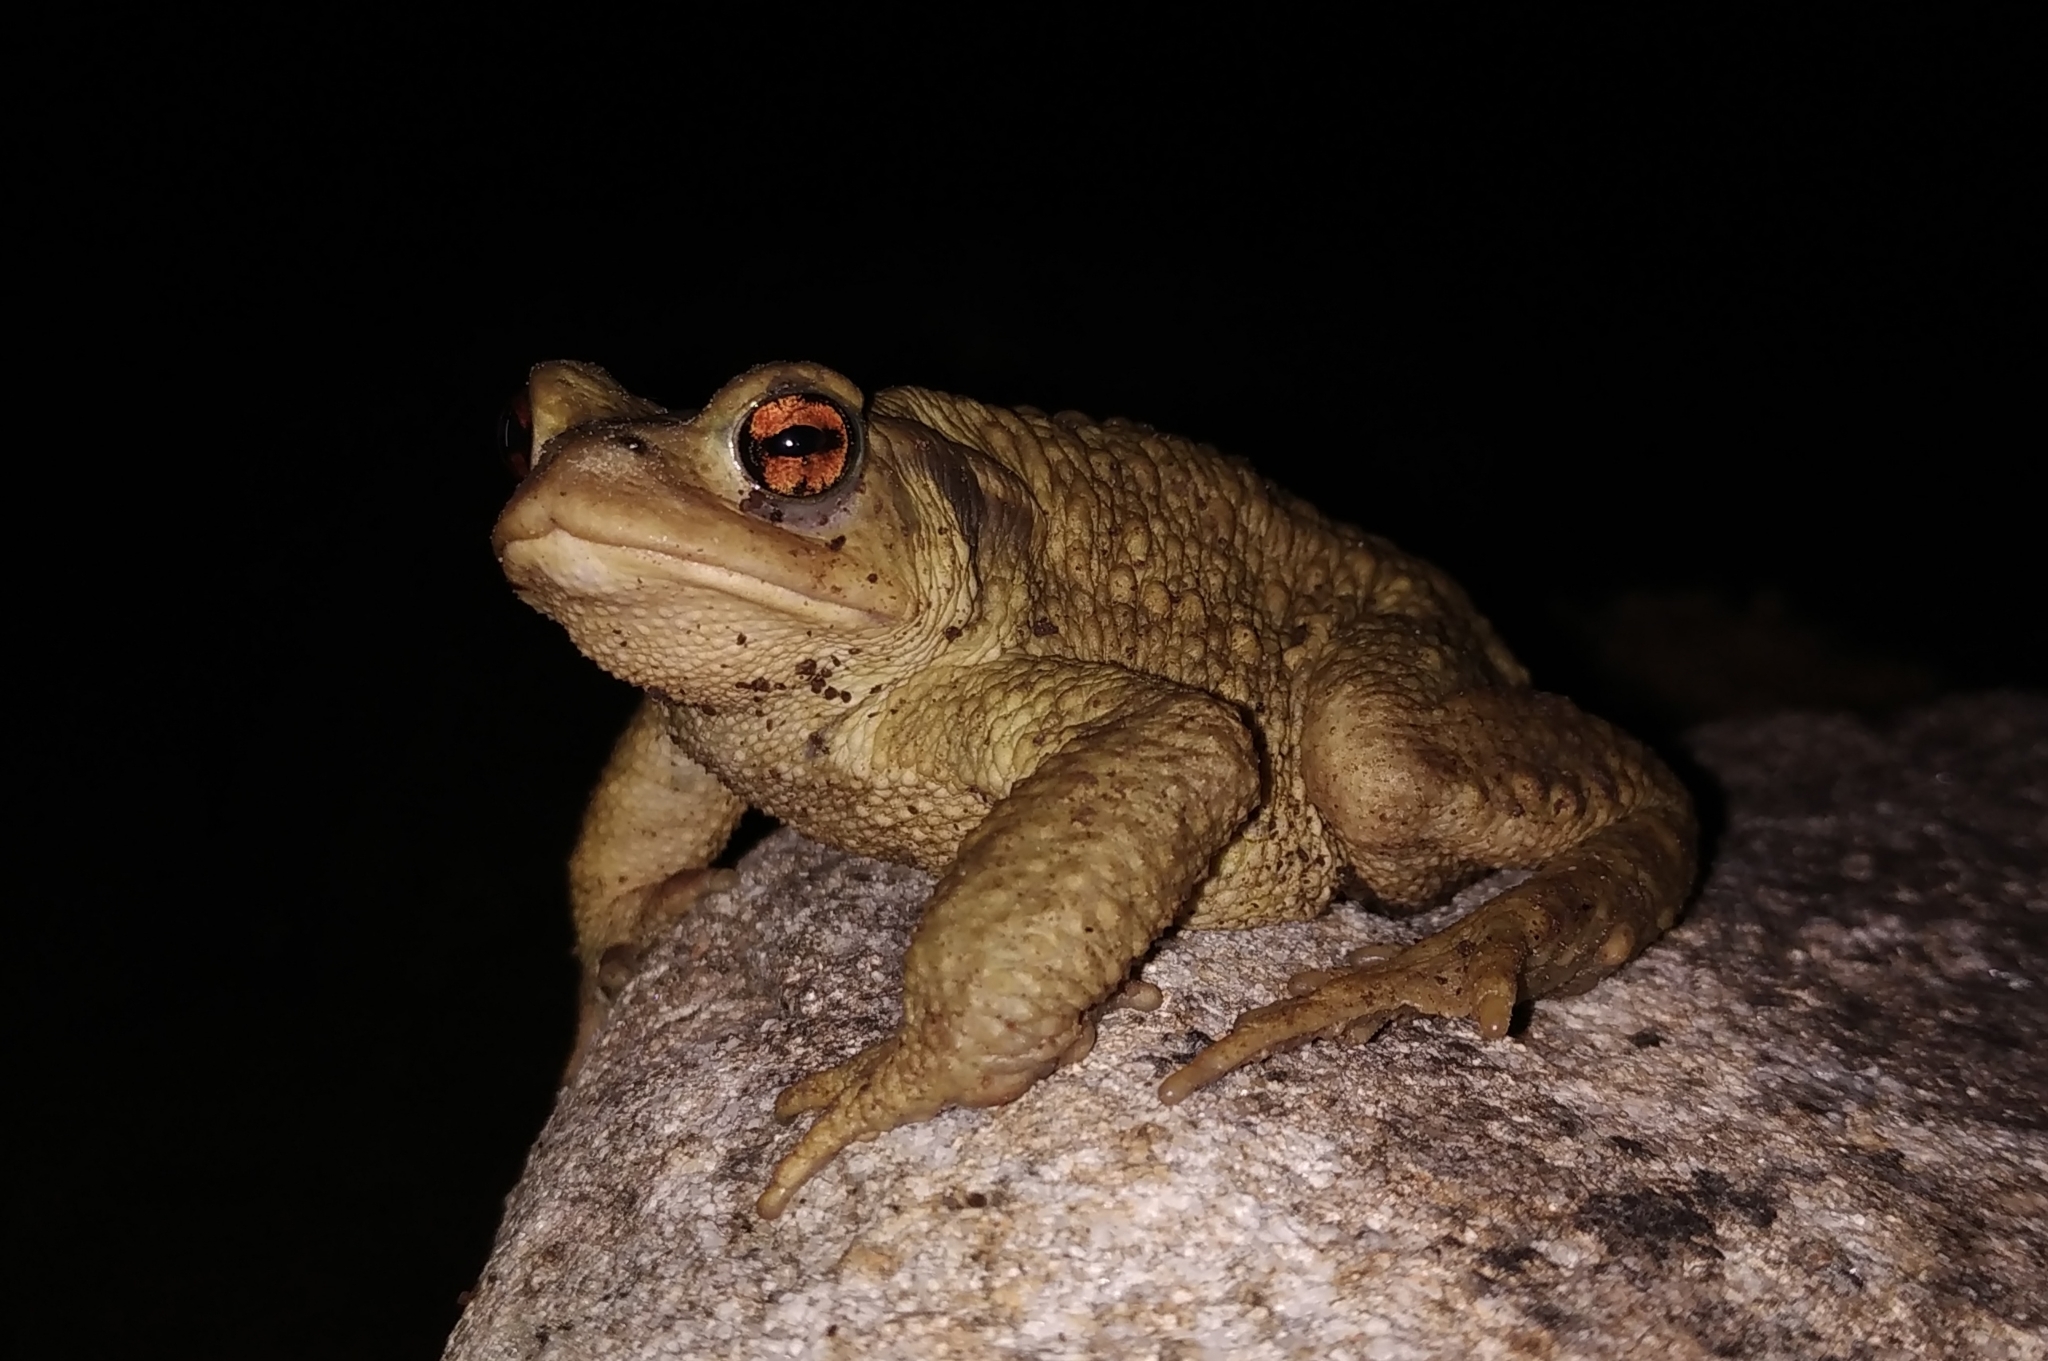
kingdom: Animalia
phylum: Chordata
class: Amphibia
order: Anura
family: Bufonidae
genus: Bufo
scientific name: Bufo spinosus
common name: Western common toad
